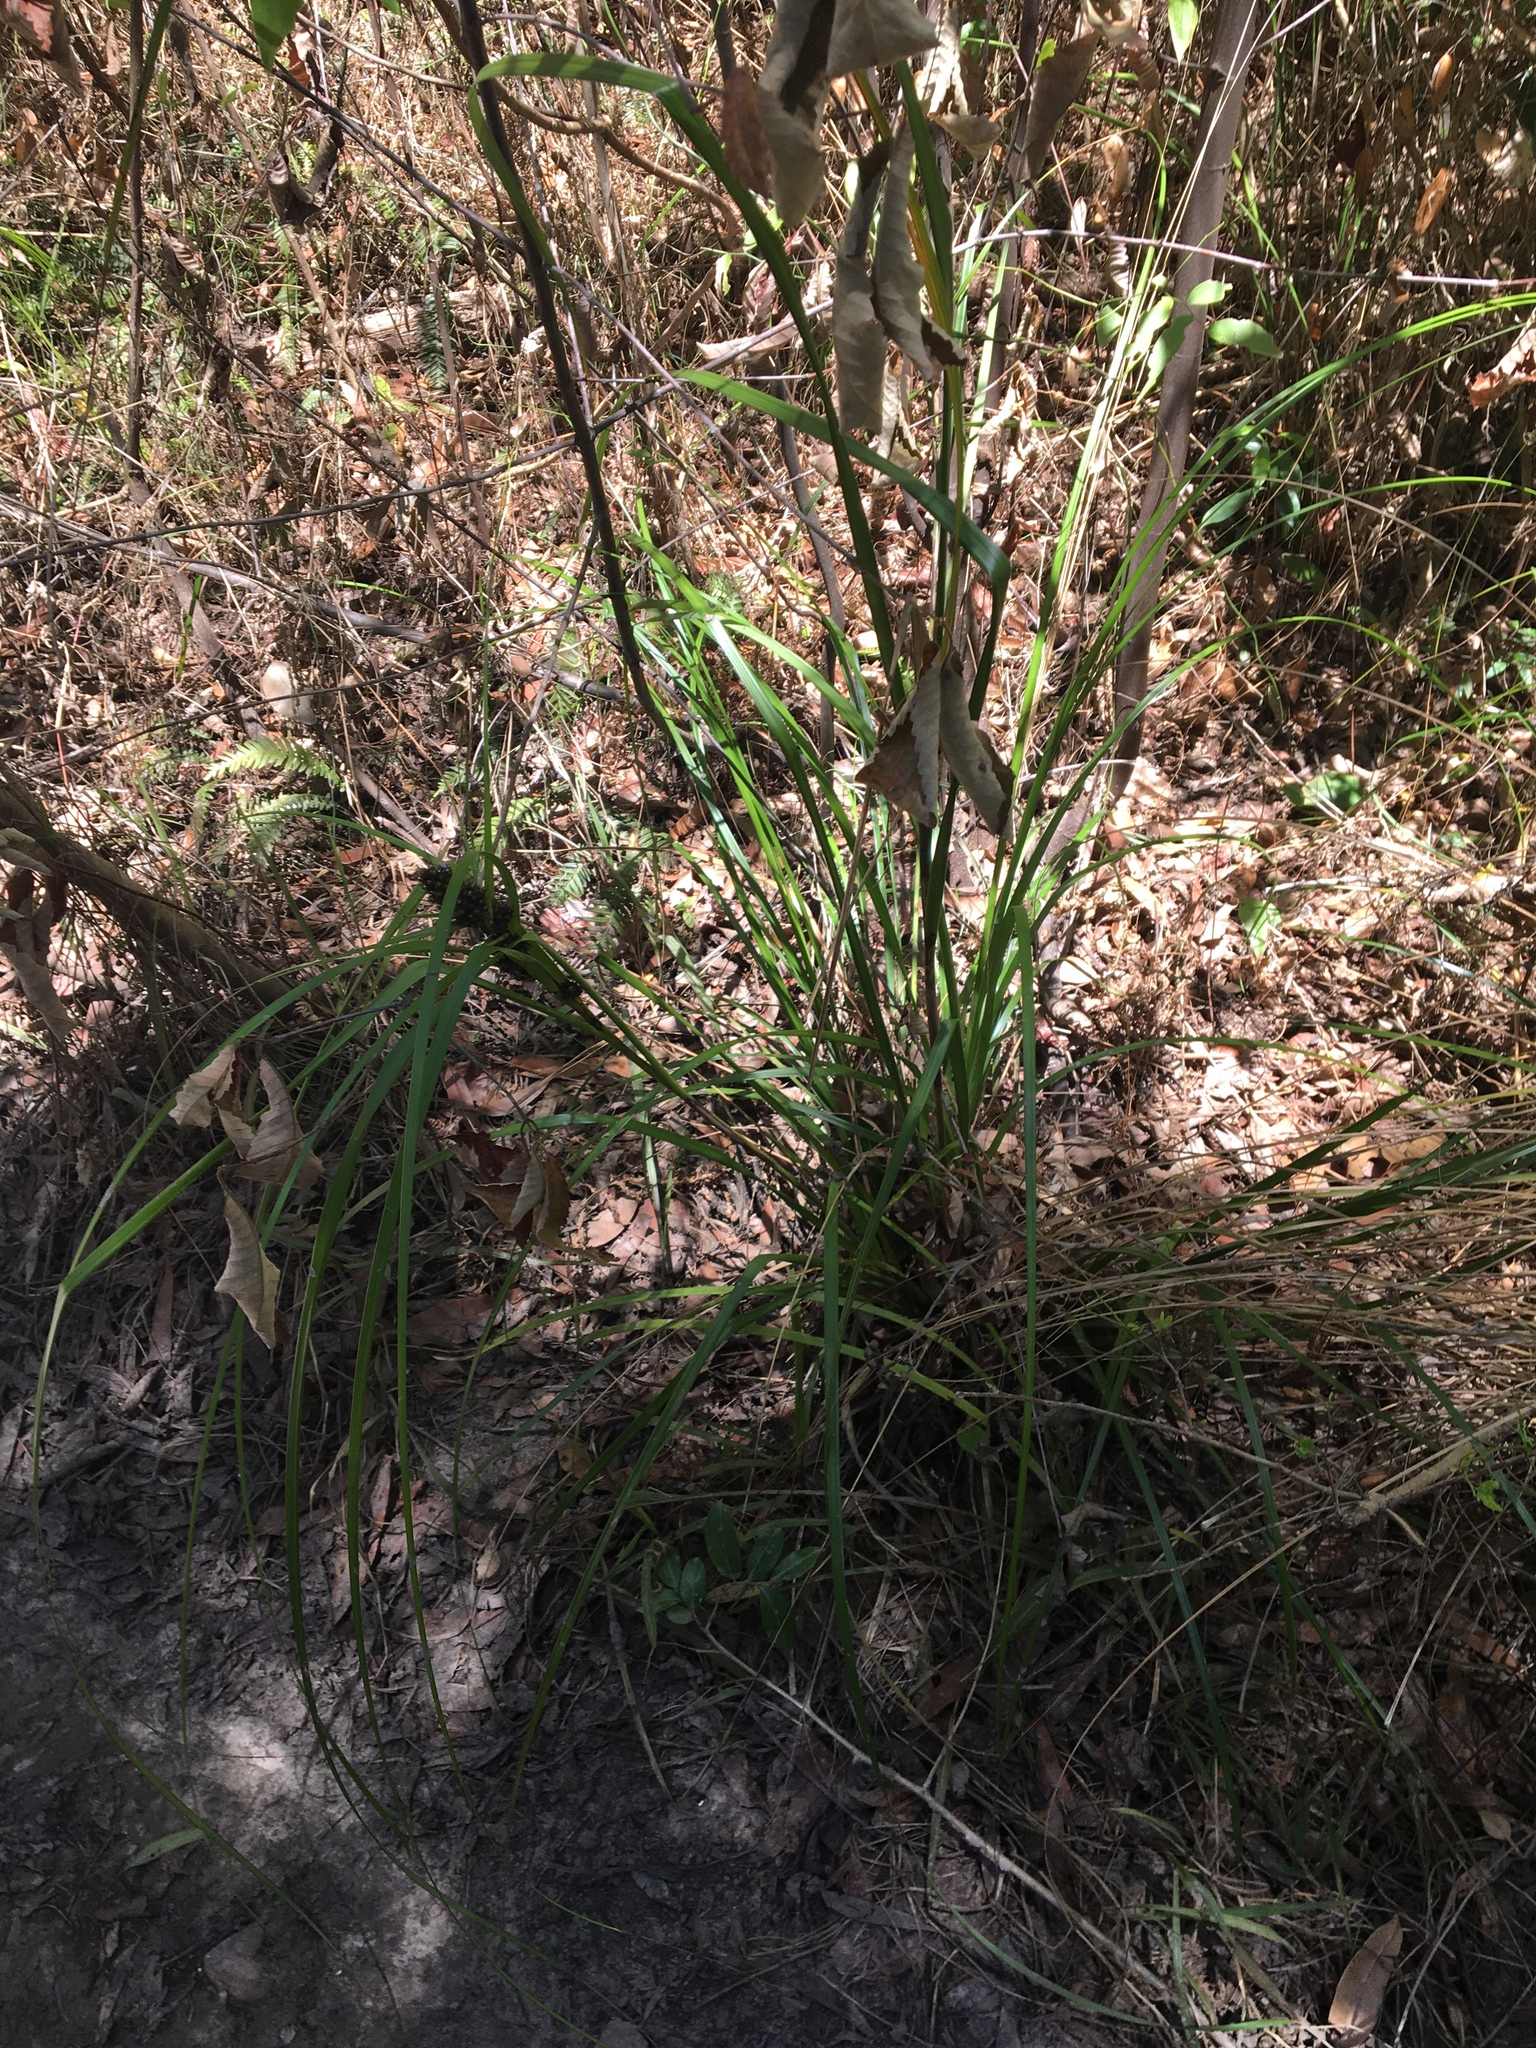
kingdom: Plantae
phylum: Tracheophyta
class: Liliopsida
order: Poales
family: Cyperaceae
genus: Gahnia
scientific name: Gahnia aspera
